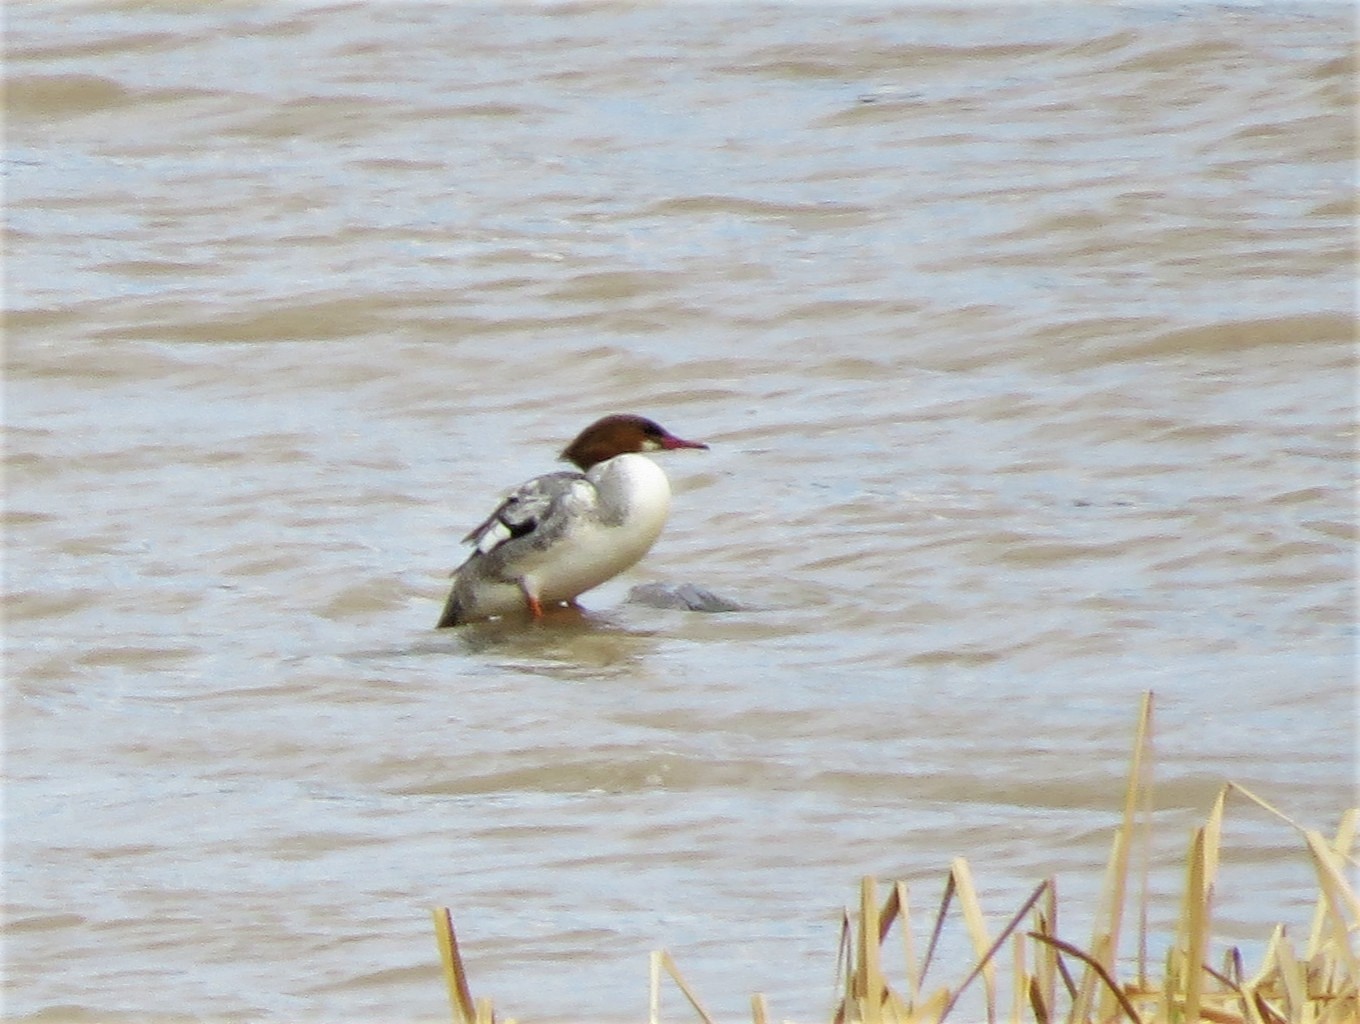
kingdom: Animalia
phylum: Chordata
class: Aves
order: Anseriformes
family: Anatidae
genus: Mergus
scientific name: Mergus merganser
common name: Common merganser
